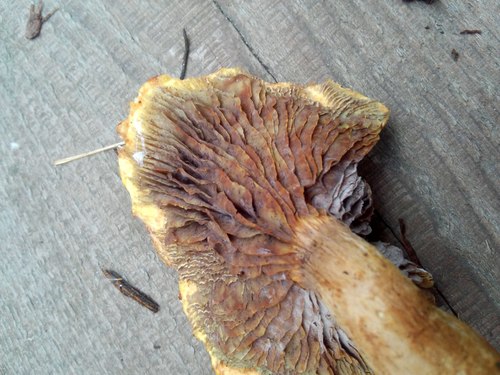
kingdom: Fungi
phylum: Basidiomycota
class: Agaricomycetes
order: Agaricales
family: Strophariaceae
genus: Hypholoma
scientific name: Hypholoma
